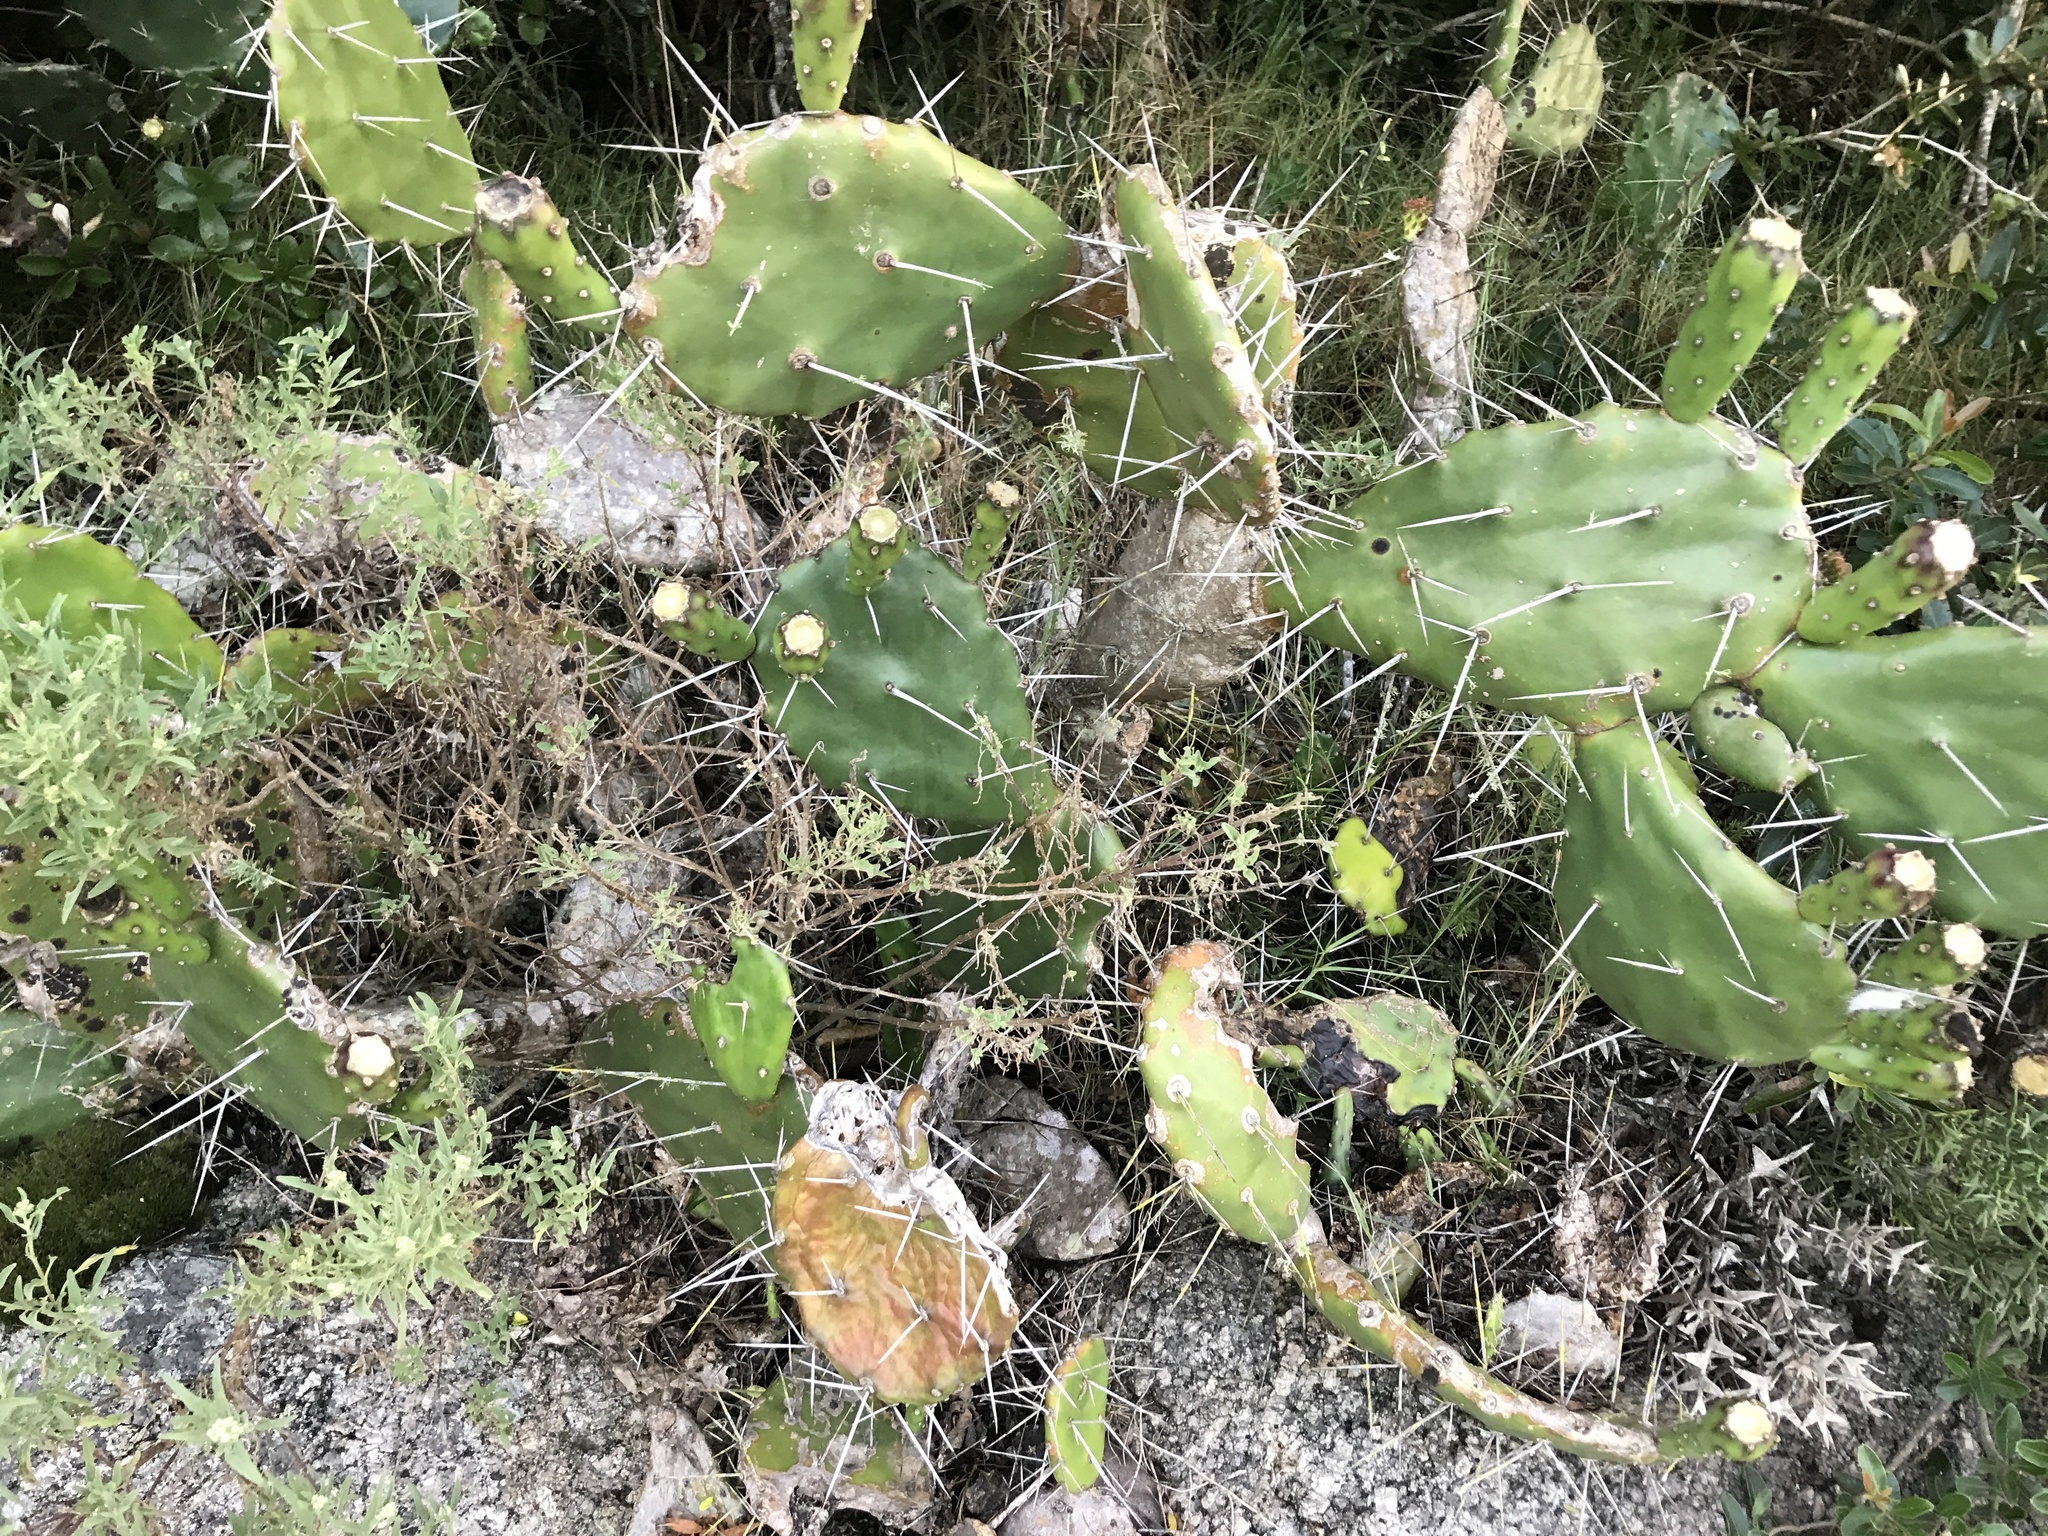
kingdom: Plantae
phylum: Tracheophyta
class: Magnoliopsida
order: Caryophyllales
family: Cactaceae
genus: Opuntia
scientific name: Opuntia arechavaletae
